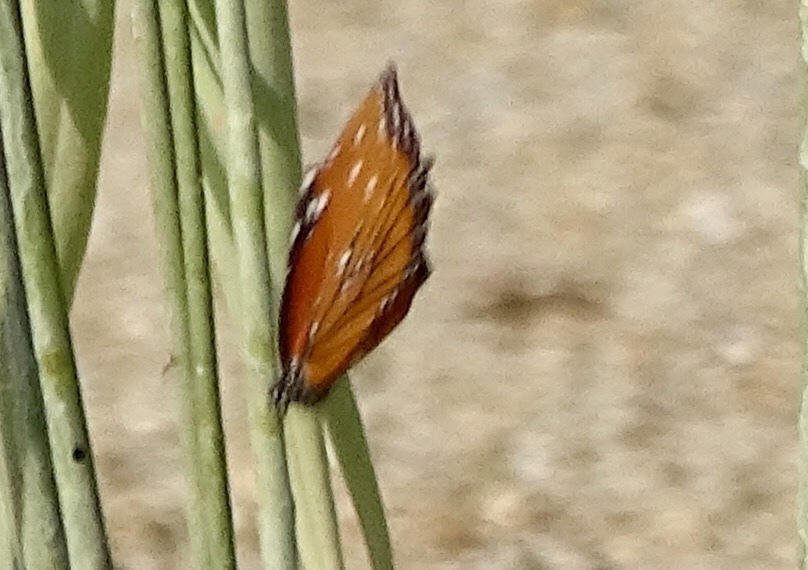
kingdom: Animalia
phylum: Arthropoda
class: Insecta
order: Lepidoptera
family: Nymphalidae
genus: Danaus
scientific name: Danaus gilippus
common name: Queen
